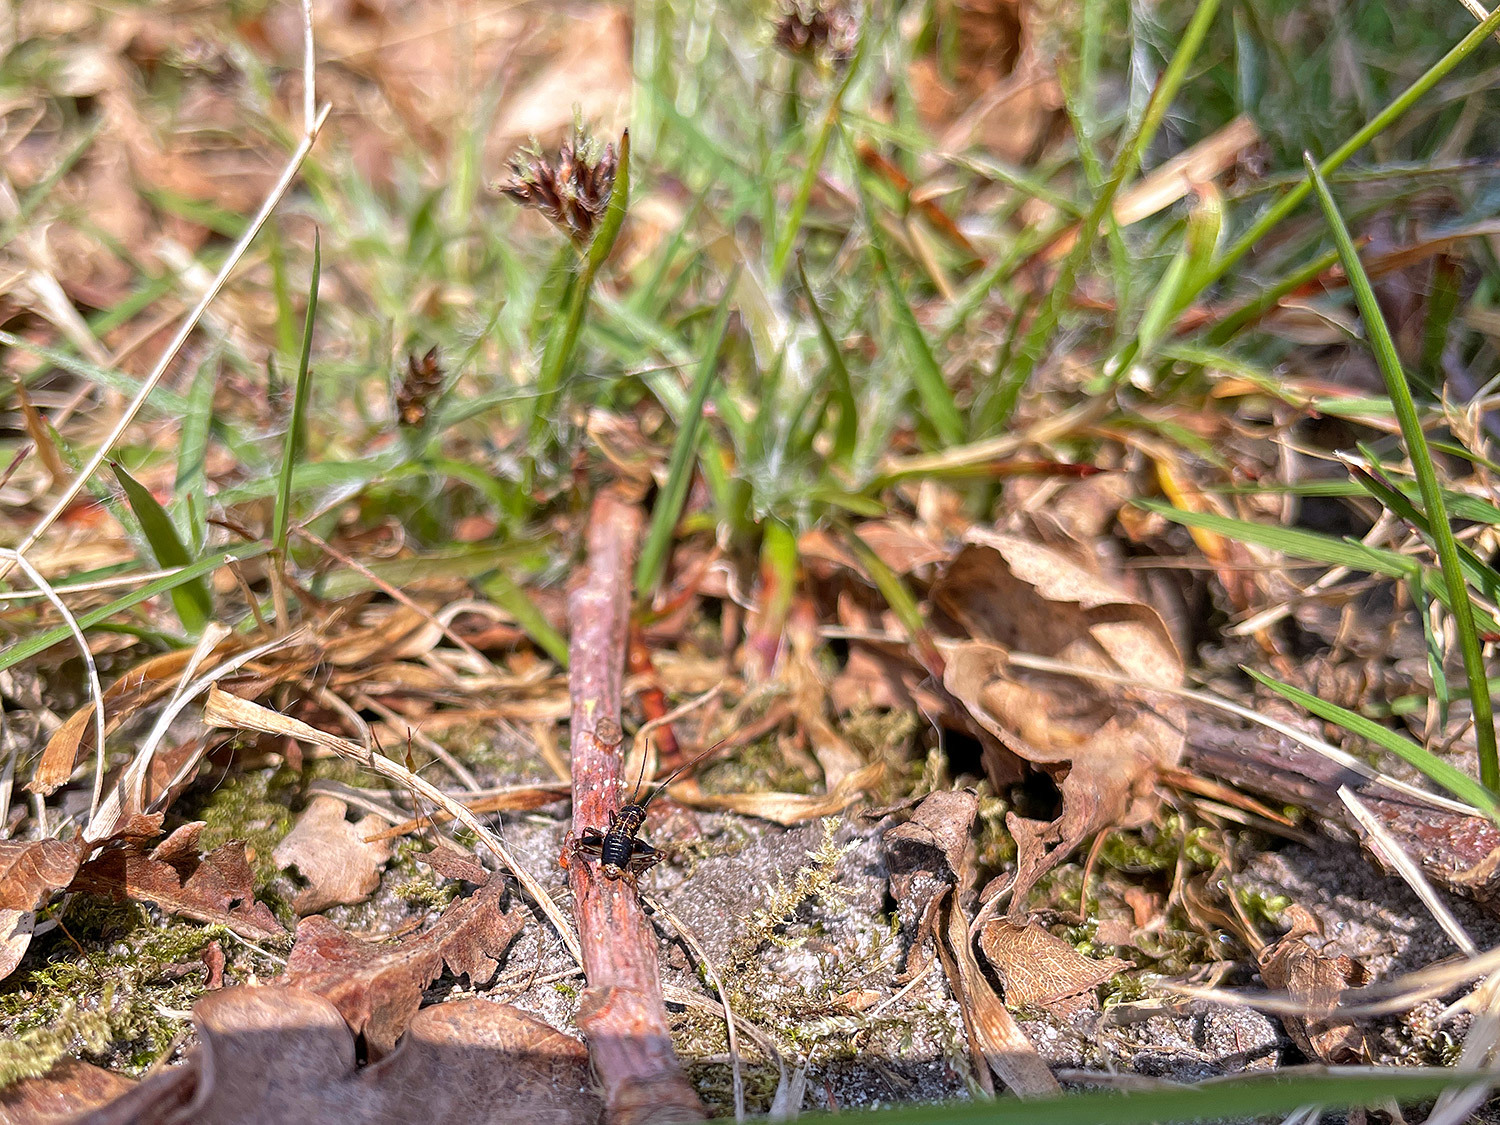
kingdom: Animalia
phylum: Arthropoda
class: Insecta
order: Orthoptera
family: Trigonidiidae
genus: Nemobius
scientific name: Nemobius sylvestris
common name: Wood-cricket
